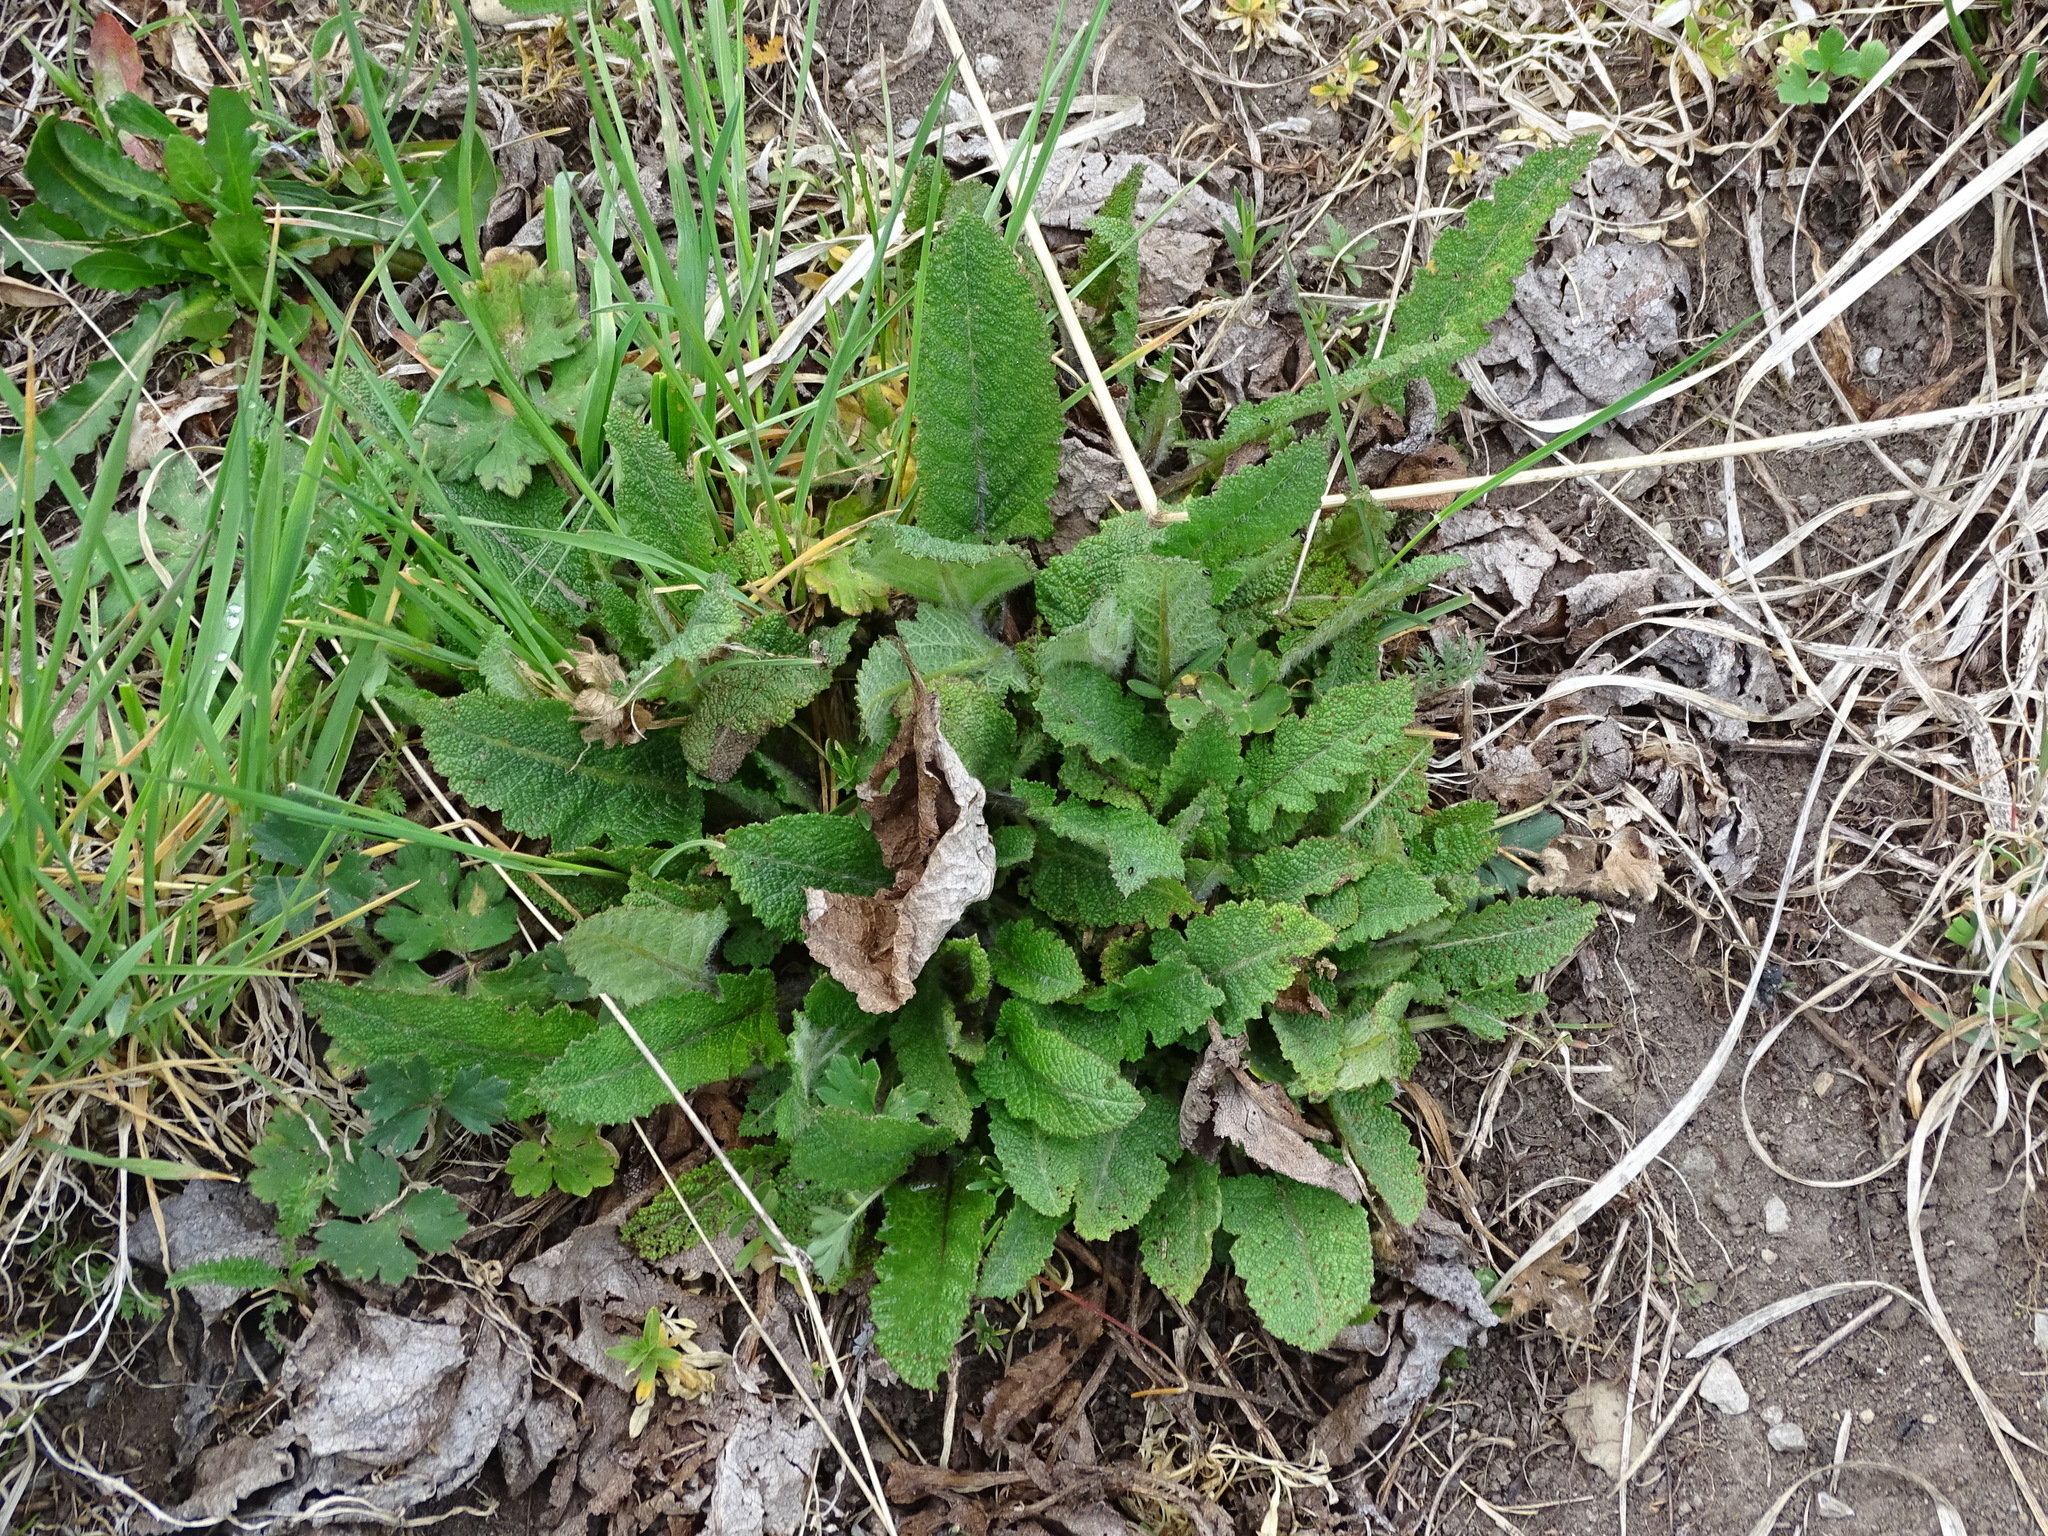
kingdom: Plantae
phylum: Tracheophyta
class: Magnoliopsida
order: Lamiales
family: Lamiaceae
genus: Salvia
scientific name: Salvia pratensis
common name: Meadow sage
